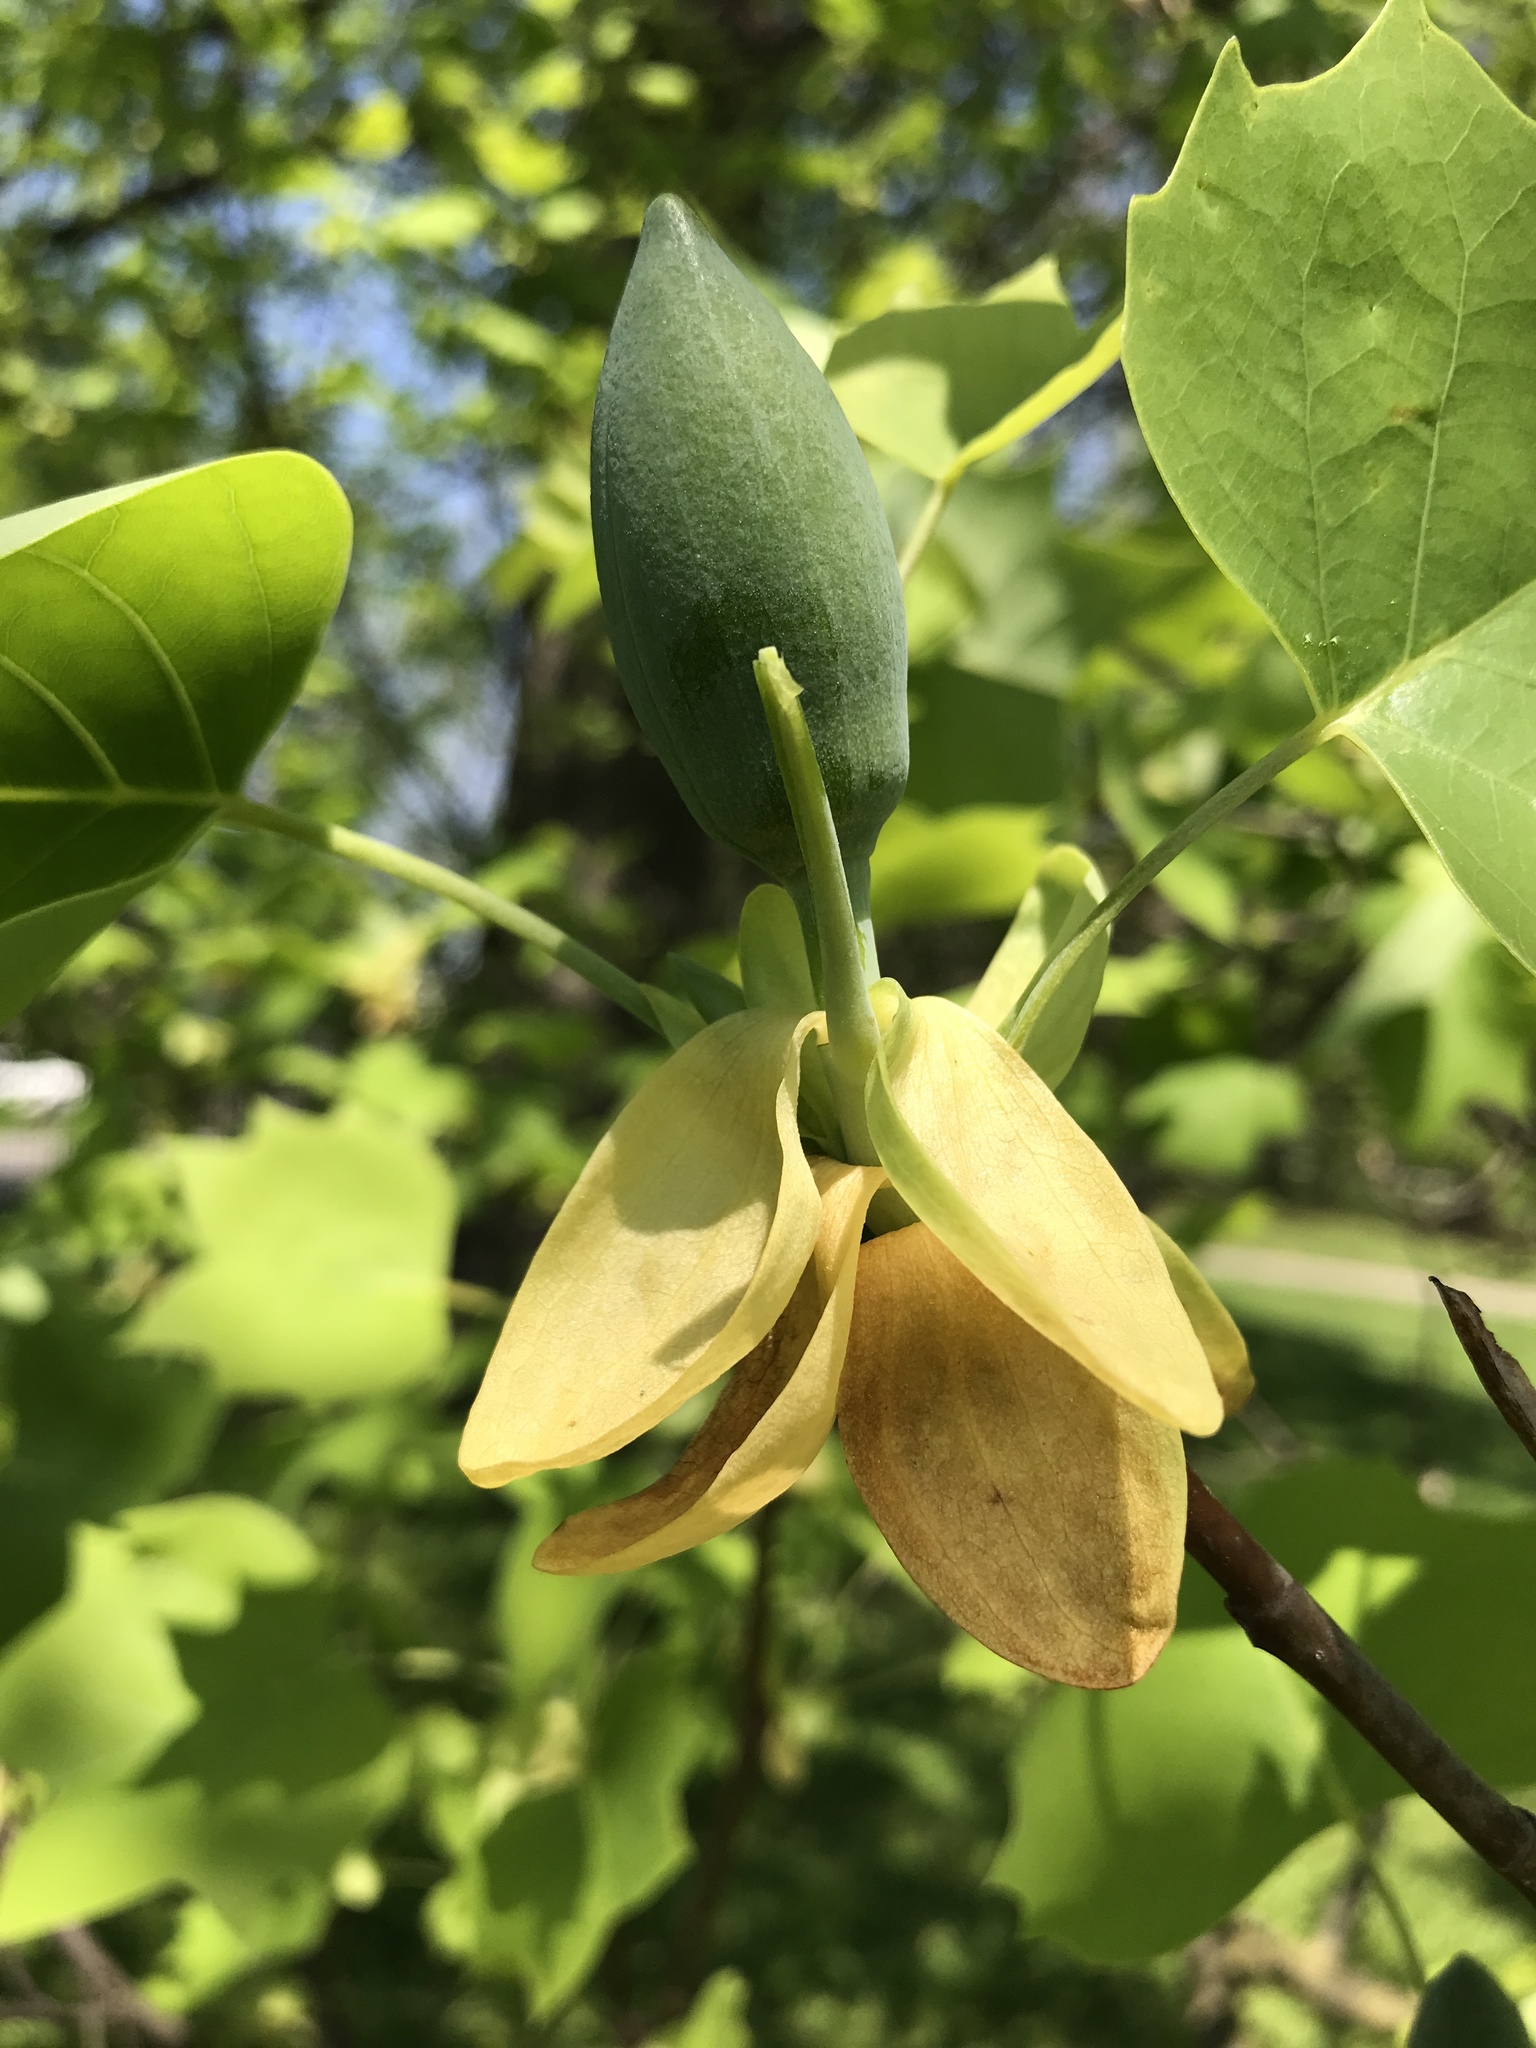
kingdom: Plantae
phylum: Tracheophyta
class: Magnoliopsida
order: Magnoliales
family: Magnoliaceae
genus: Liriodendron
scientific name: Liriodendron tulipifera
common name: Tulip tree
